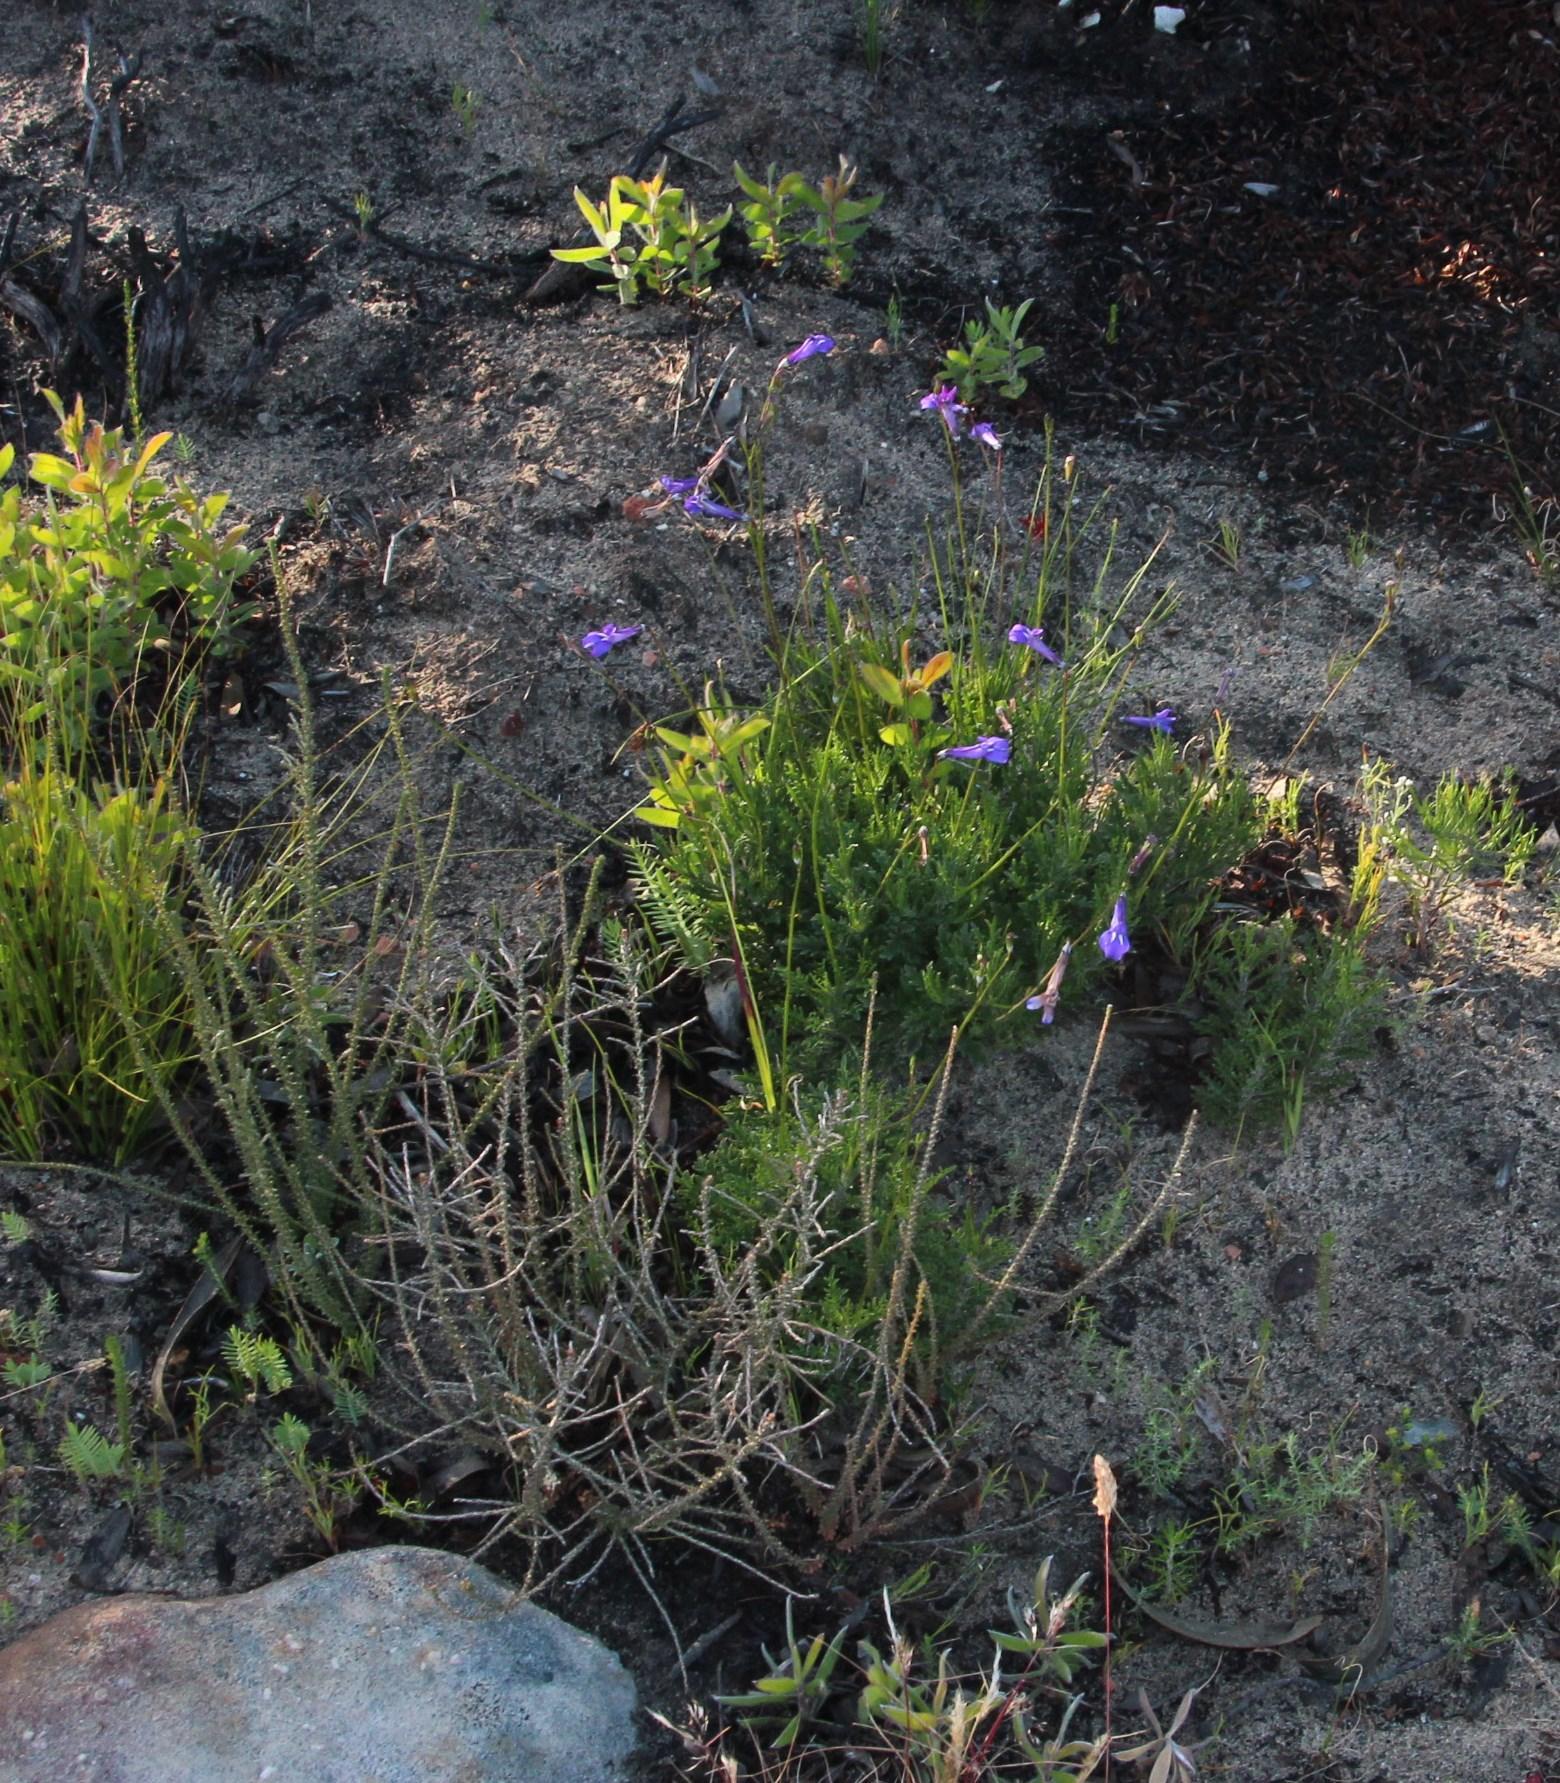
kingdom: Plantae
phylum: Tracheophyta
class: Magnoliopsida
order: Asterales
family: Campanulaceae
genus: Lobelia
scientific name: Lobelia coronopifolia
